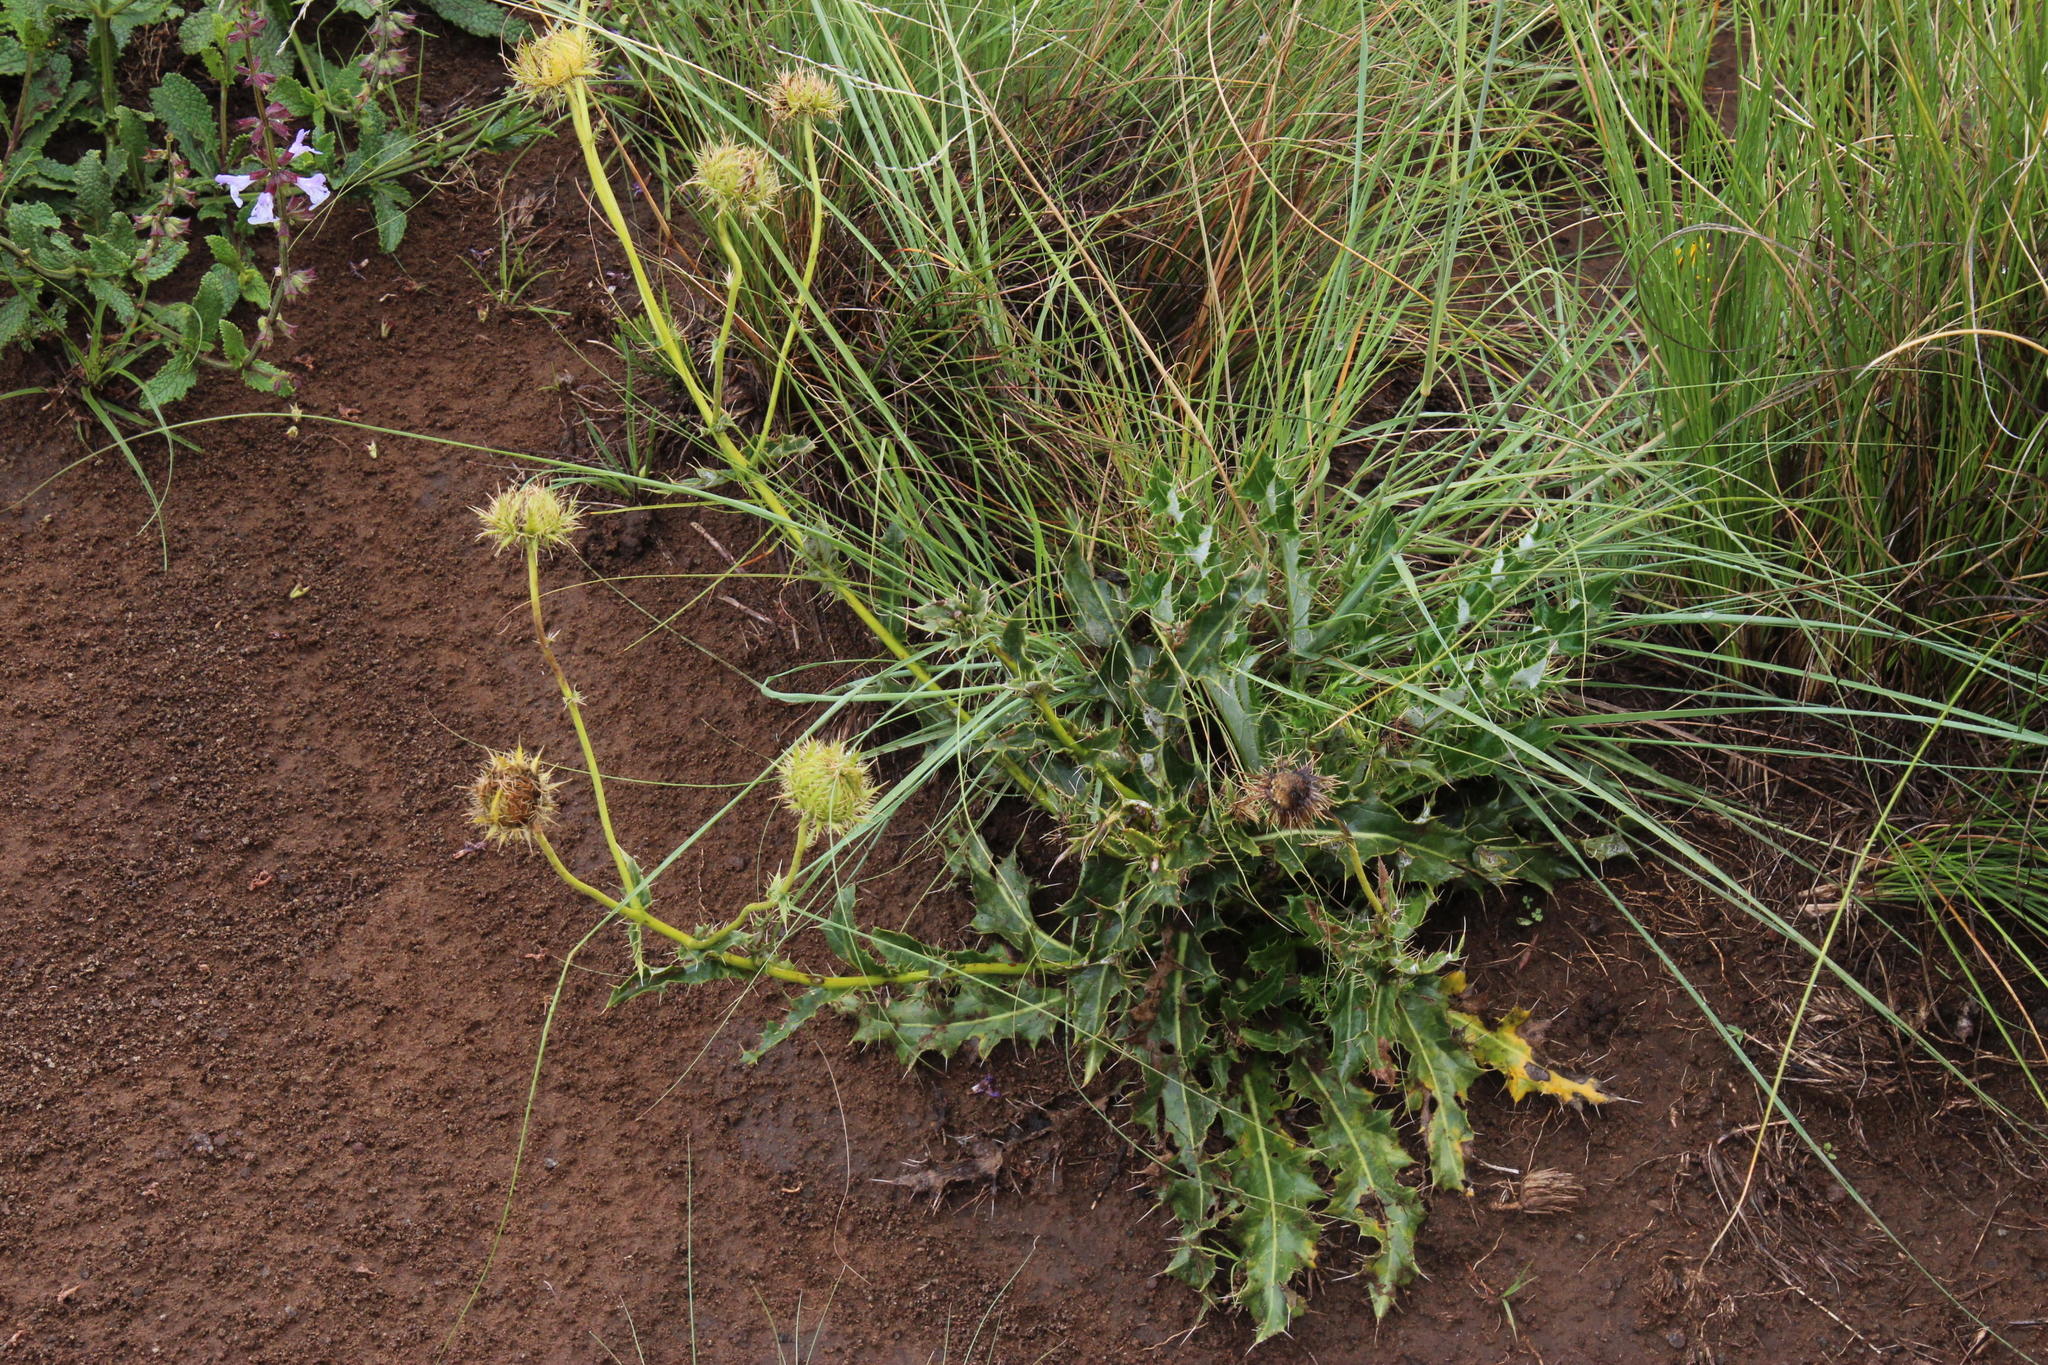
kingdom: Plantae
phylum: Tracheophyta
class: Magnoliopsida
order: Asterales
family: Asteraceae
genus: Berkheya
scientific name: Berkheya discolor
